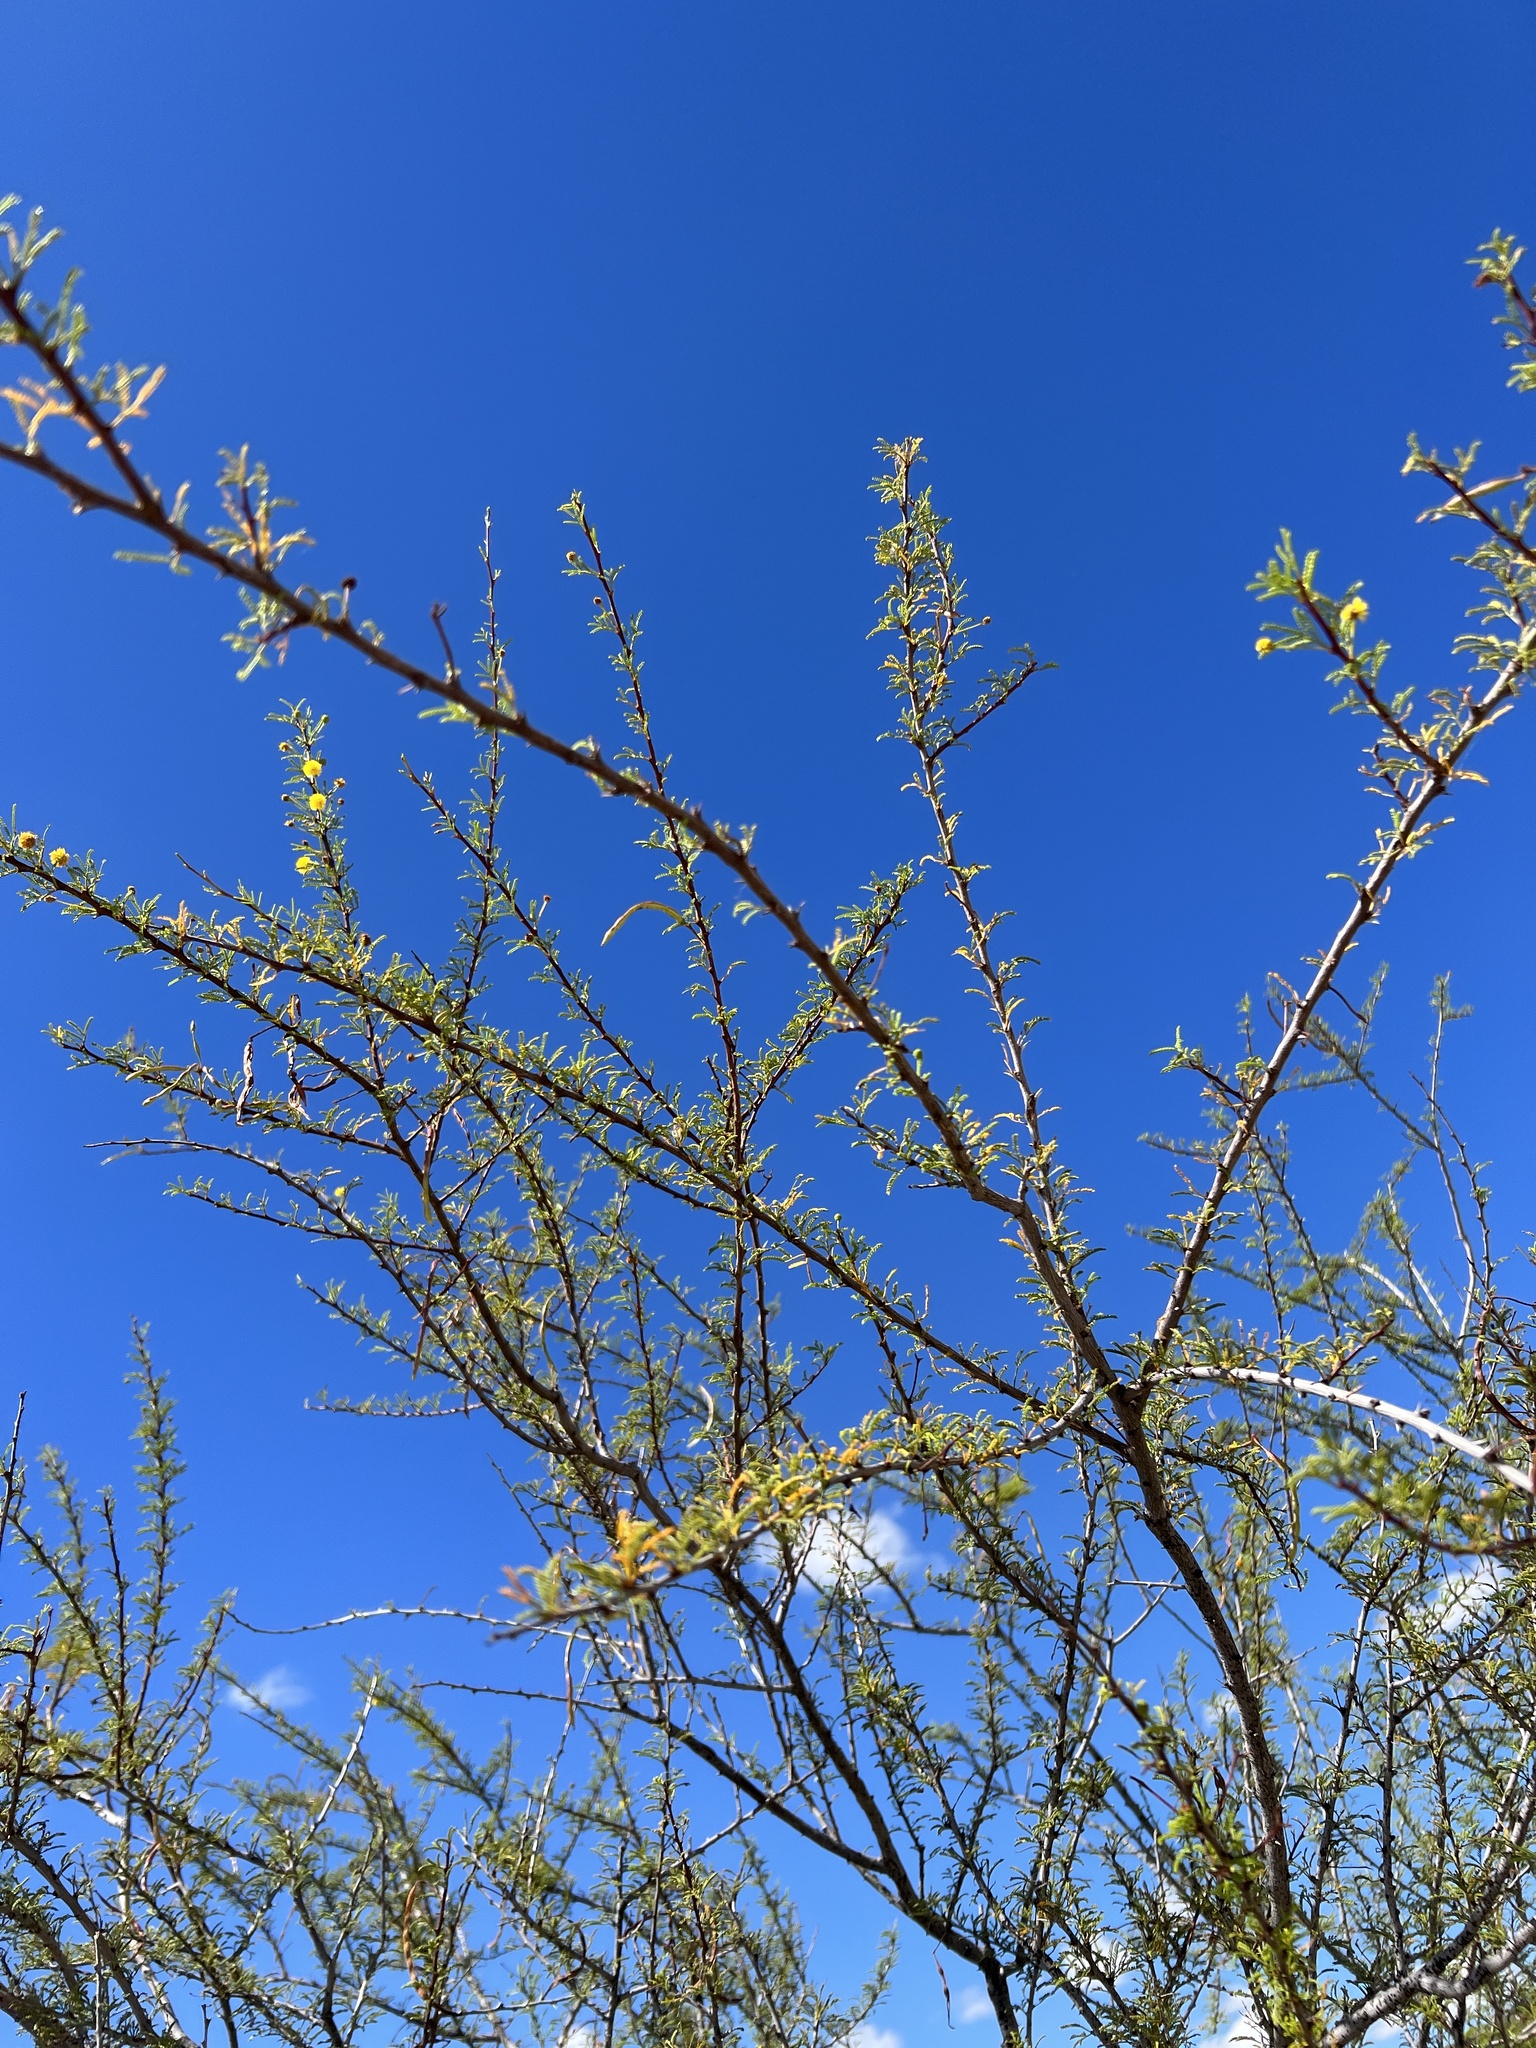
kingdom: Plantae
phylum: Tracheophyta
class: Magnoliopsida
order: Fabales
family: Fabaceae
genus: Vachellia
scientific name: Vachellia vernicosa
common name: Viscid acacia
